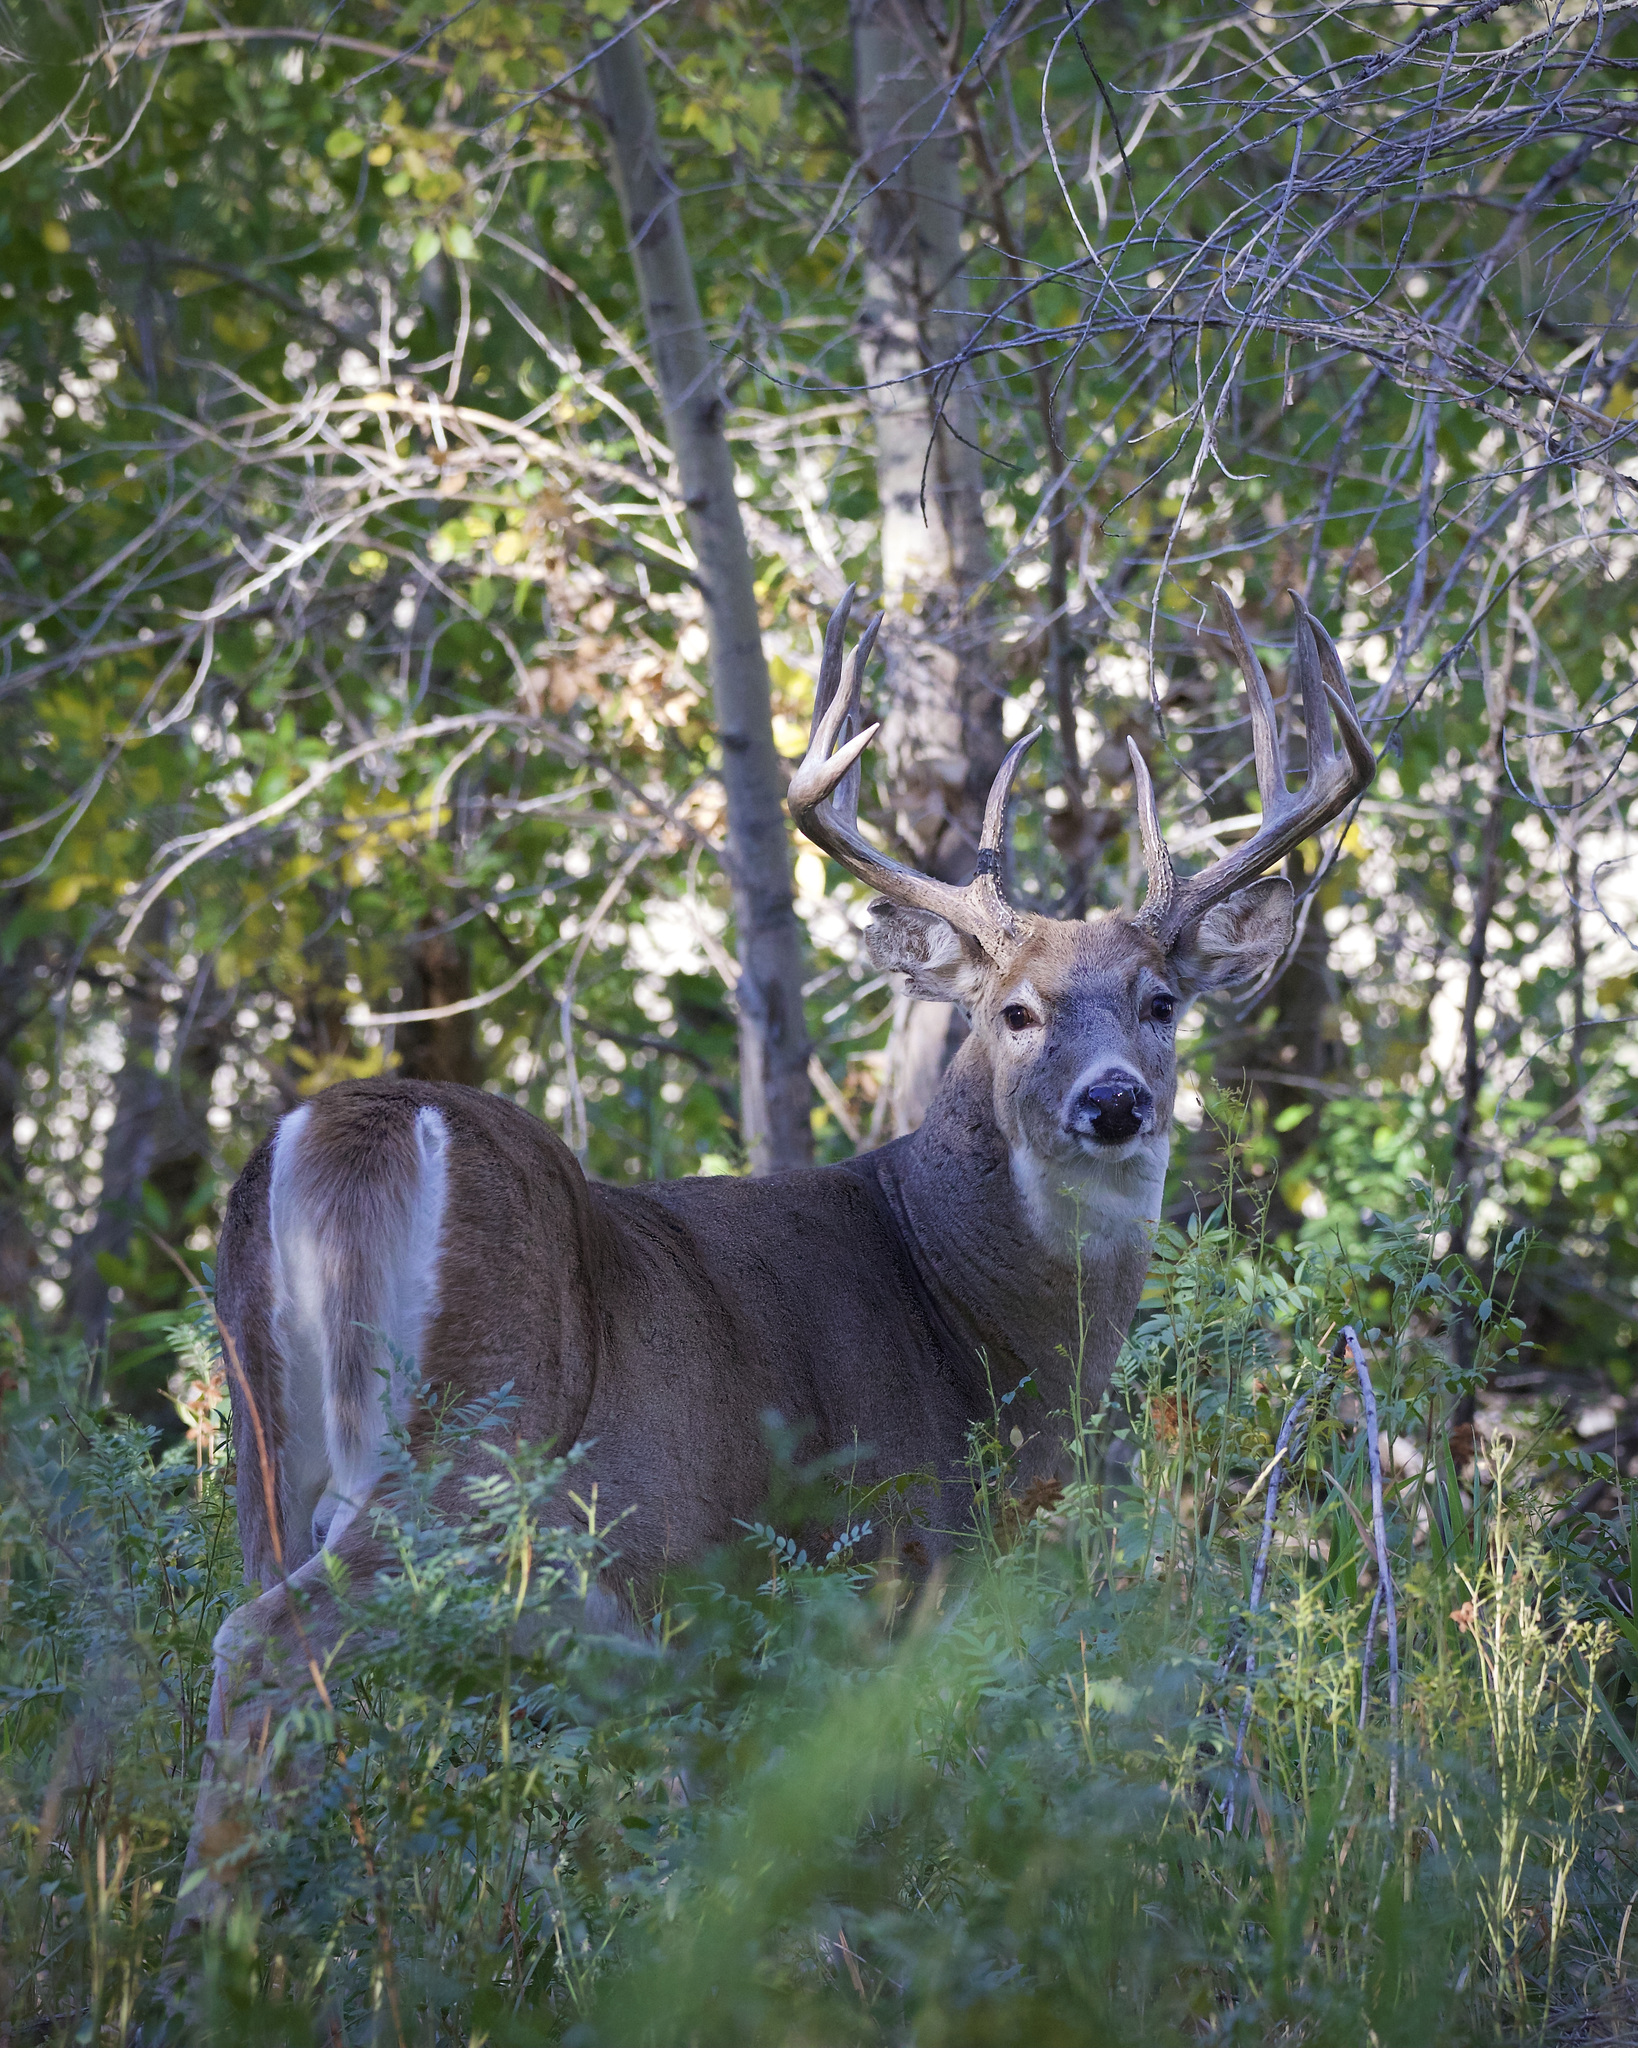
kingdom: Animalia
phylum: Chordata
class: Mammalia
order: Artiodactyla
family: Cervidae
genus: Odocoileus
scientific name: Odocoileus virginianus
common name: White-tailed deer
